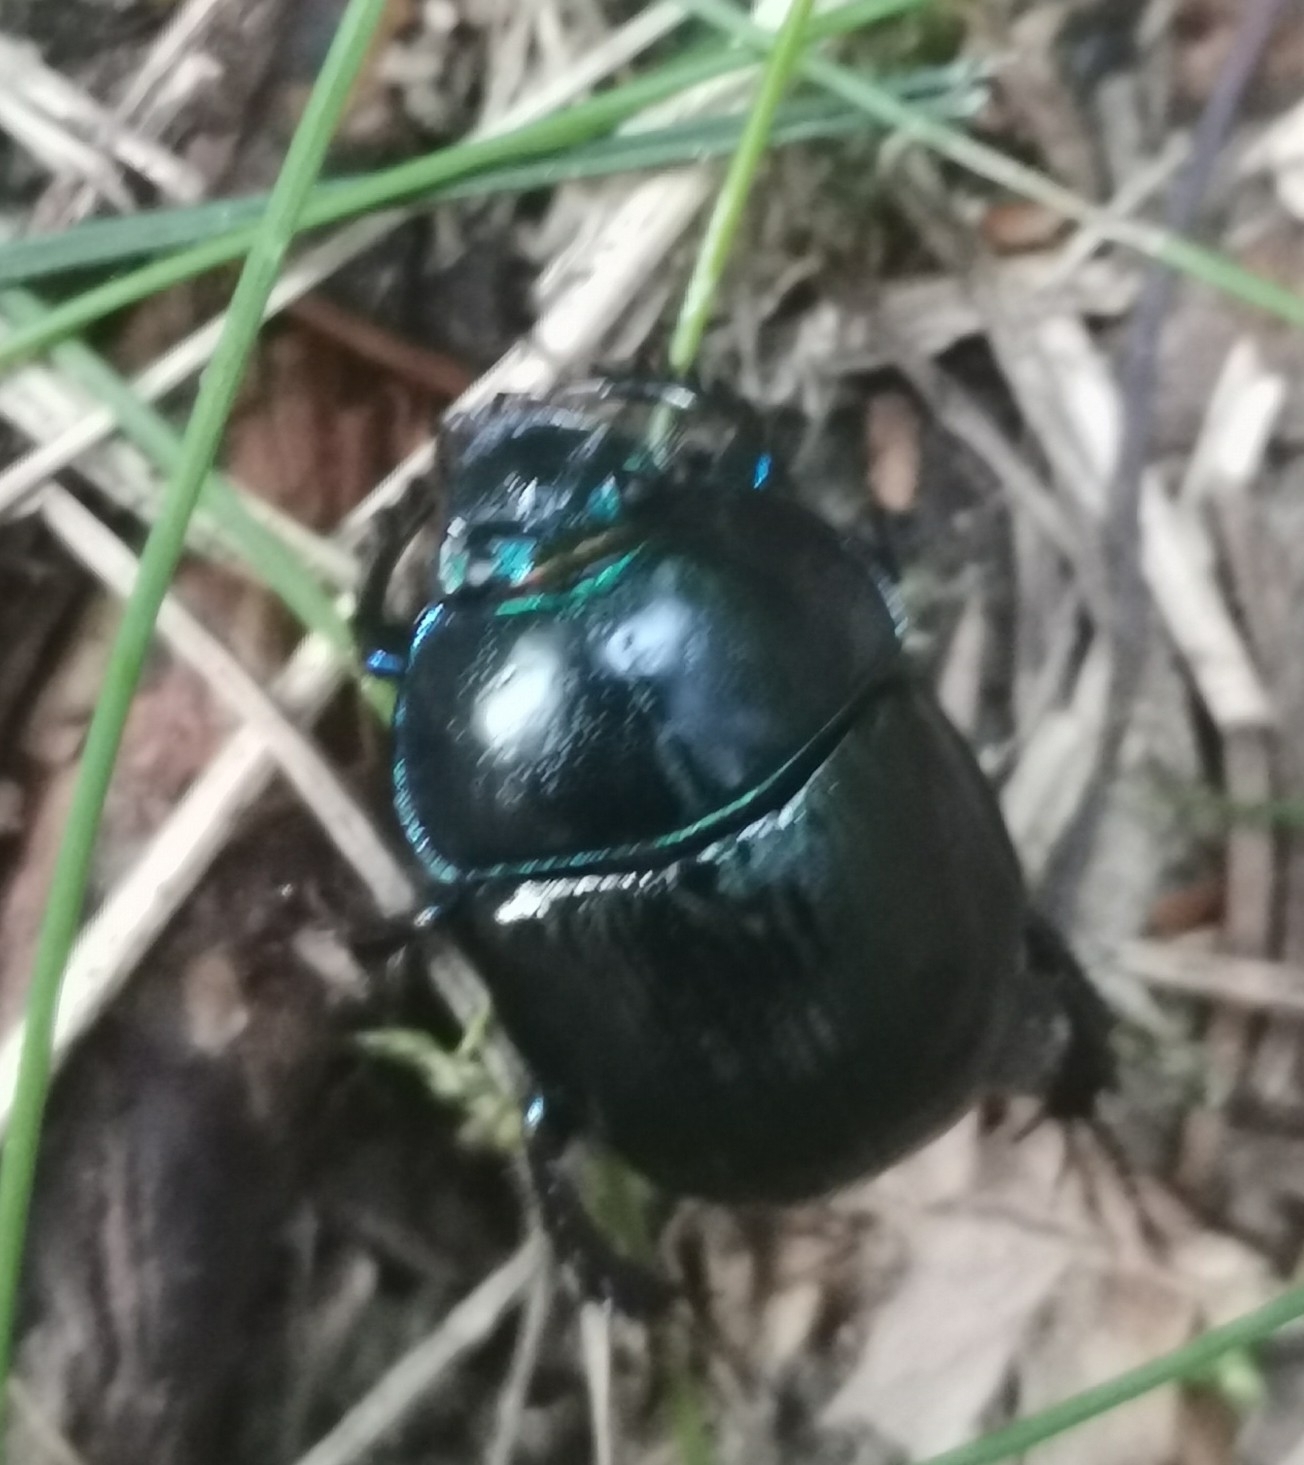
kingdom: Animalia
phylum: Arthropoda
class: Insecta
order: Coleoptera
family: Geotrupidae
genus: Anoplotrupes
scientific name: Anoplotrupes stercorosus
